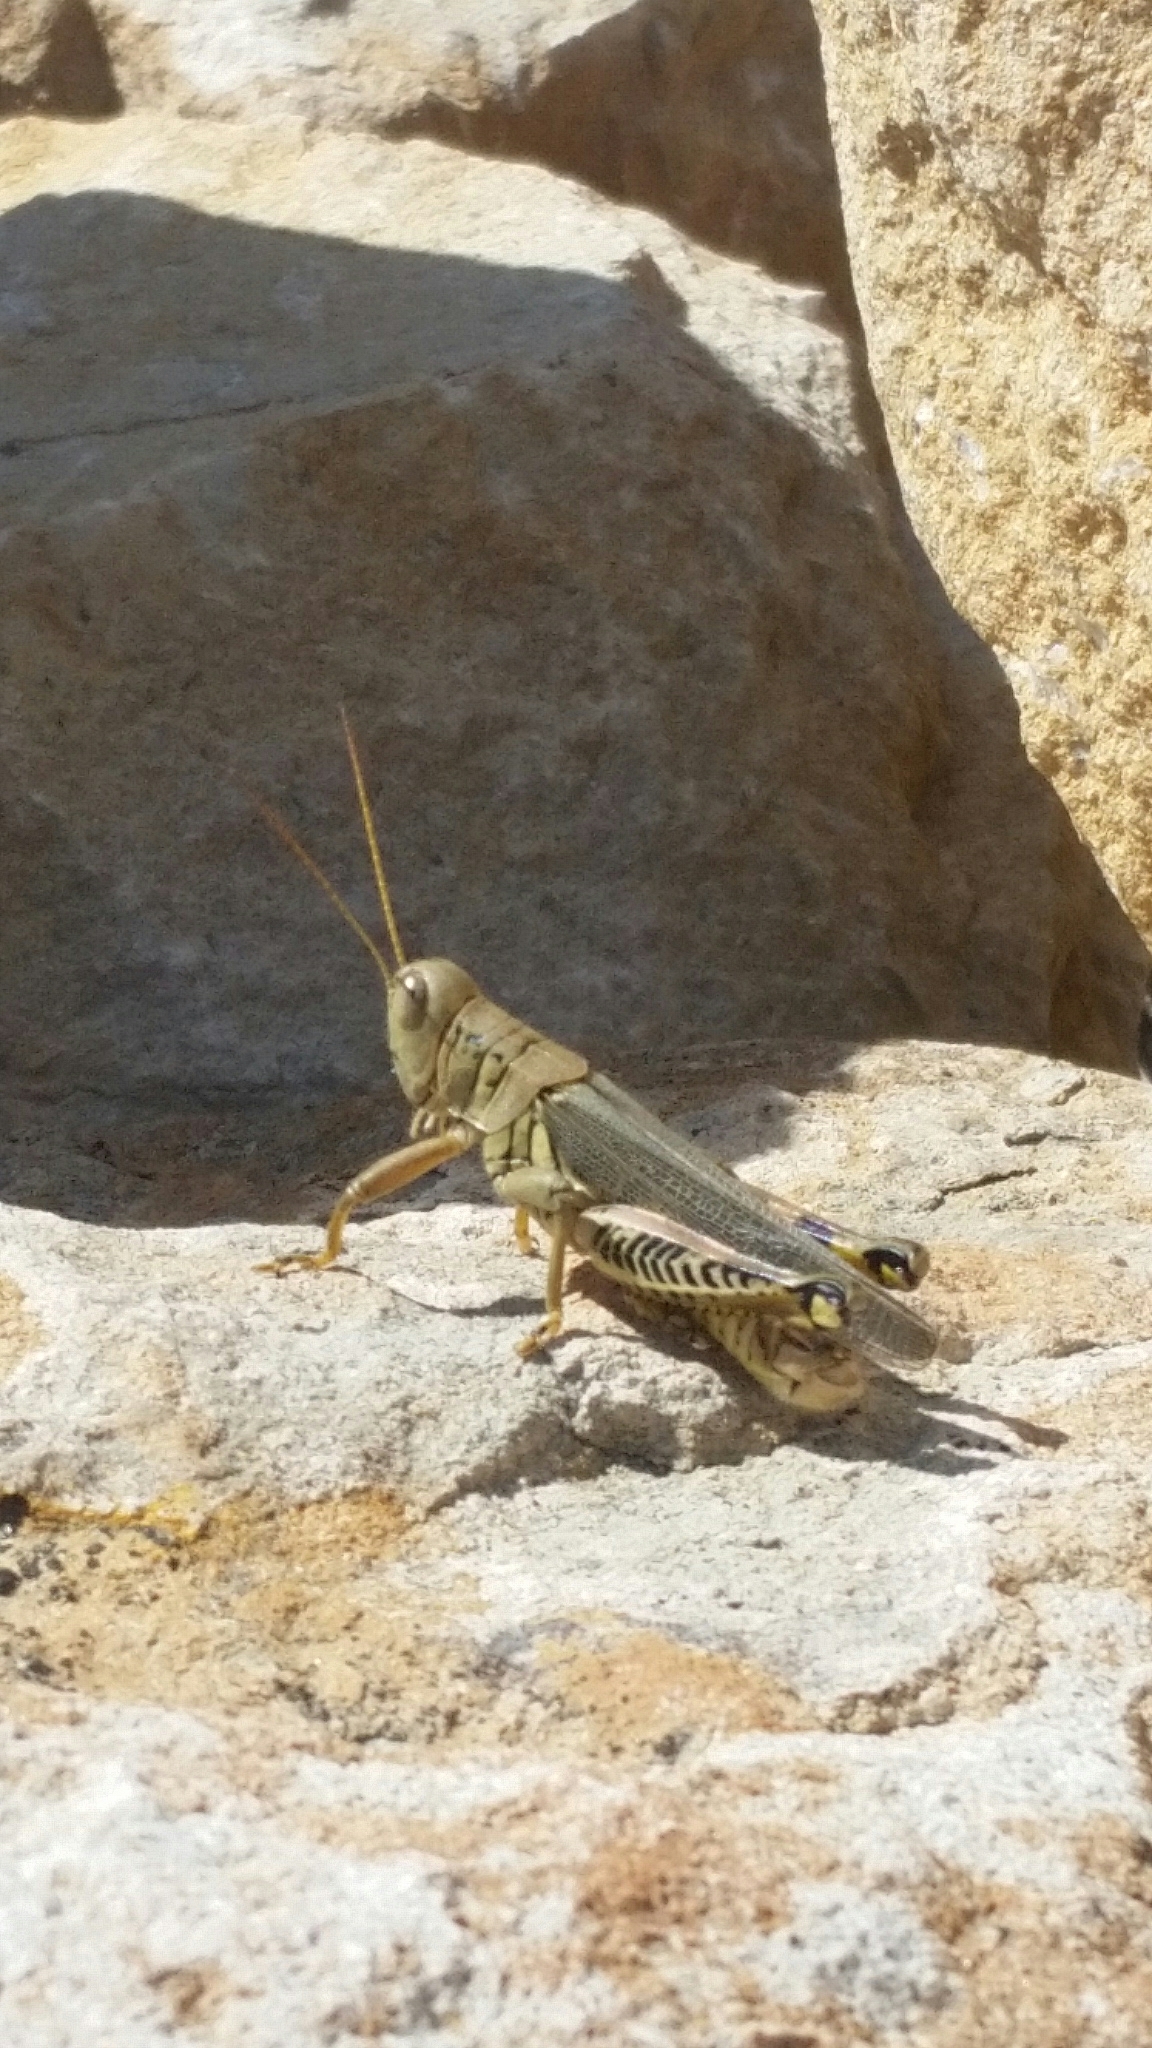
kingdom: Animalia
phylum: Arthropoda
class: Insecta
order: Orthoptera
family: Acrididae
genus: Melanoplus
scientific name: Melanoplus differentialis
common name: Differential grasshopper
